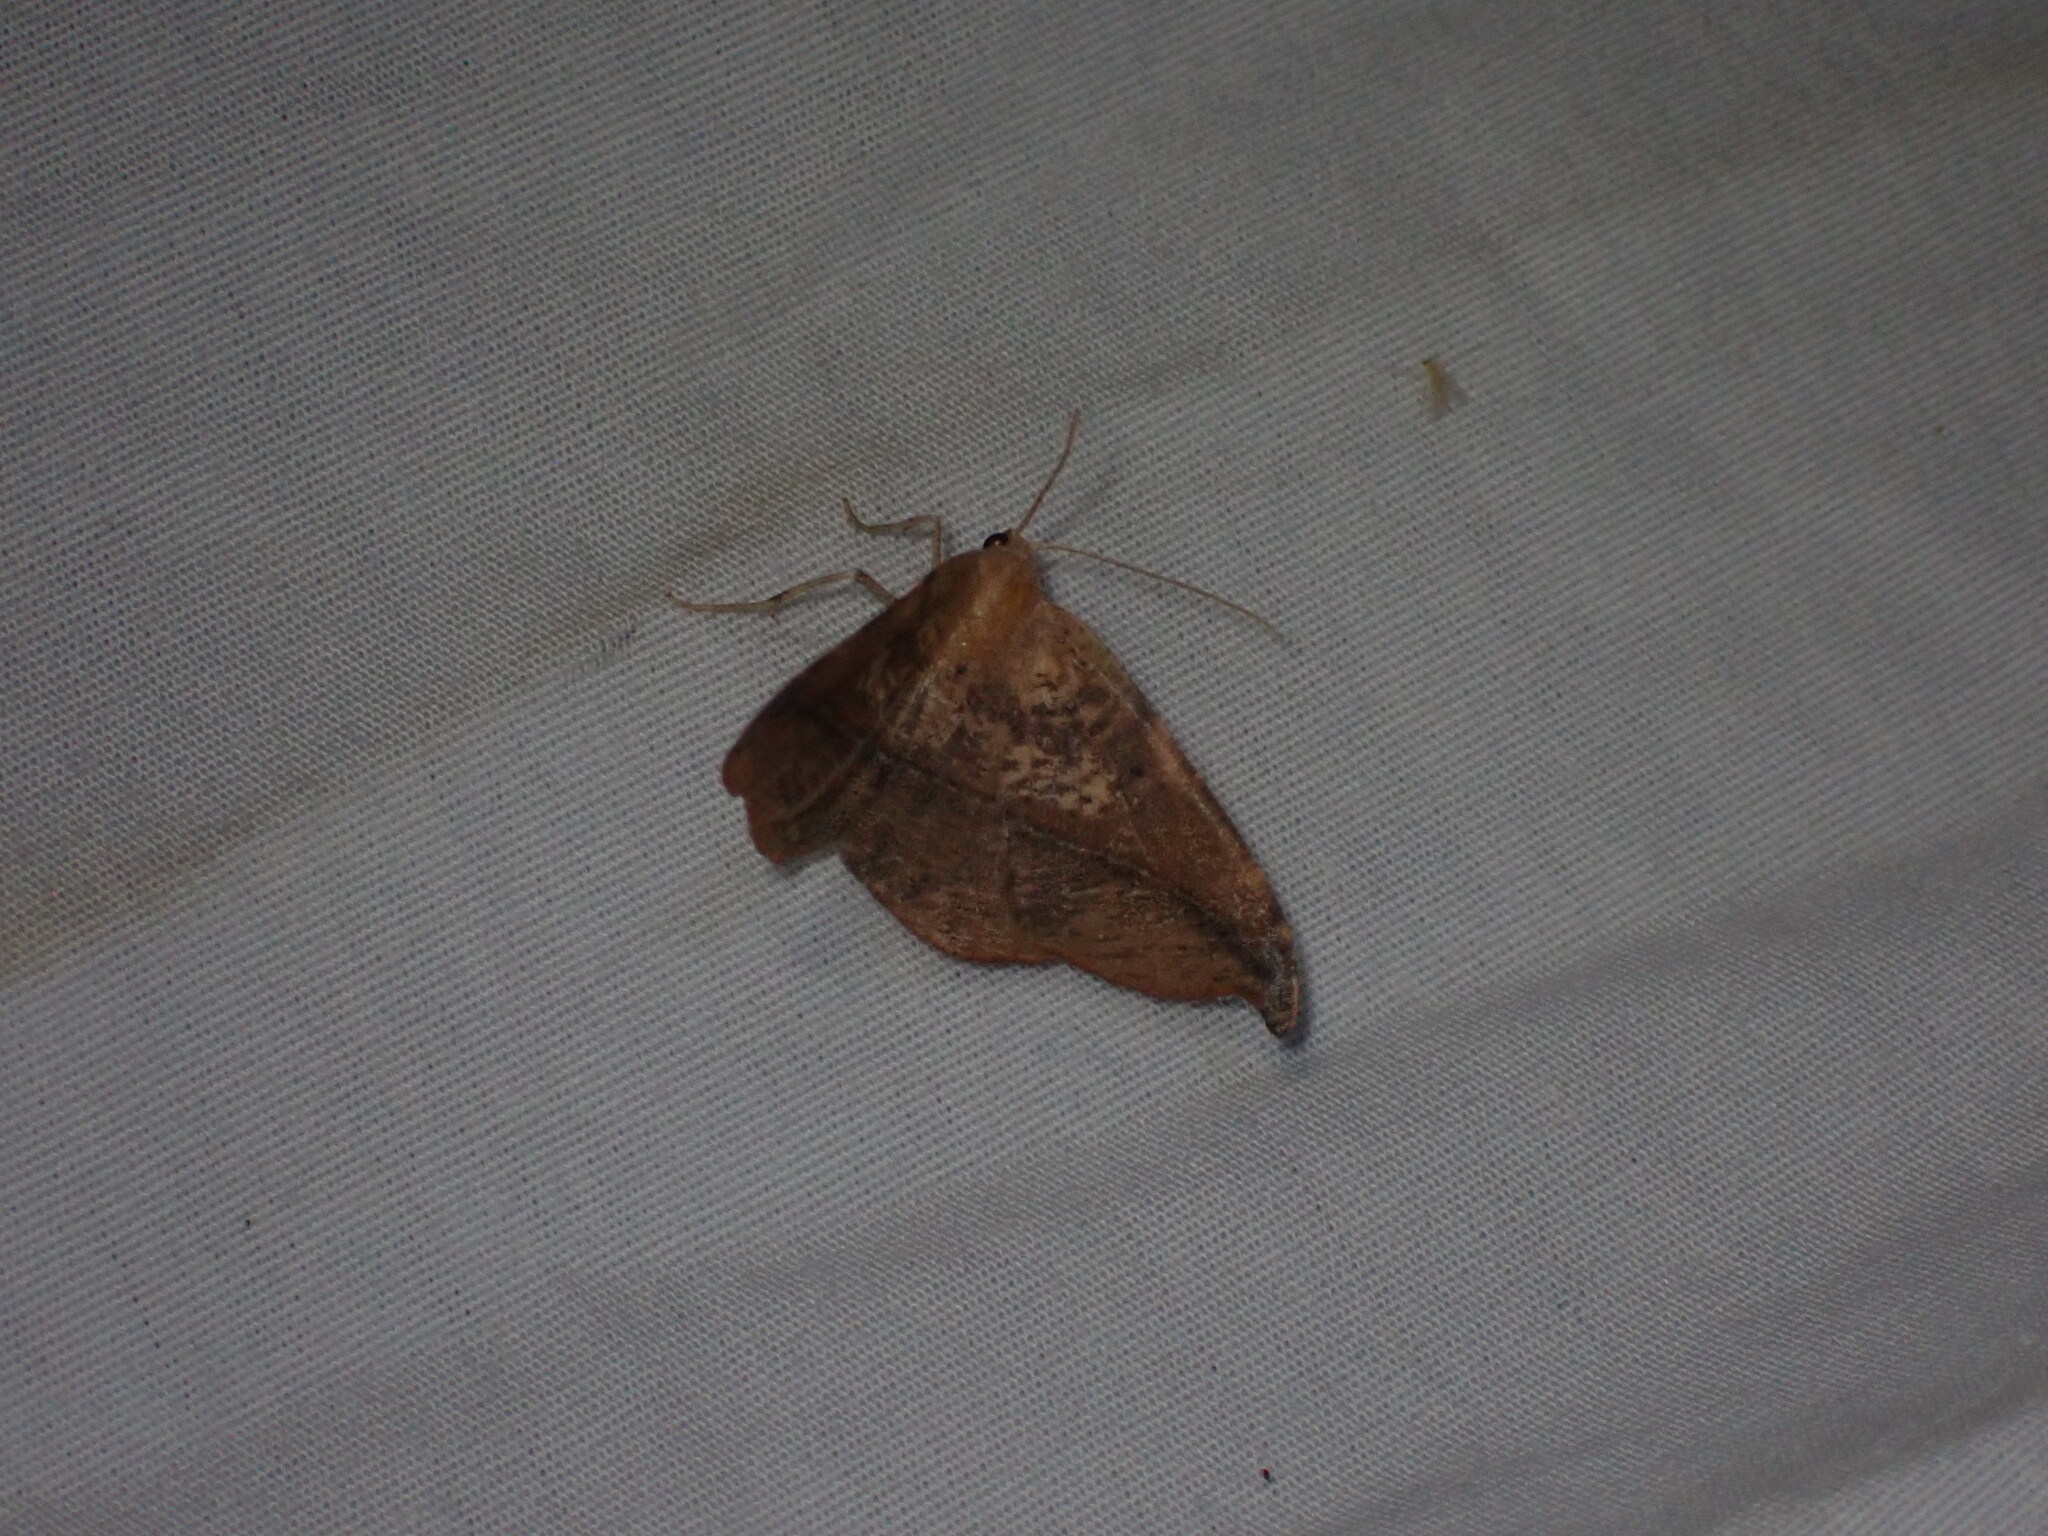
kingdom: Animalia
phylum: Arthropoda
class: Insecta
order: Lepidoptera
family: Geometridae
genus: Patalene
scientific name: Patalene olyzonaria
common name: Juniper geometer moth
